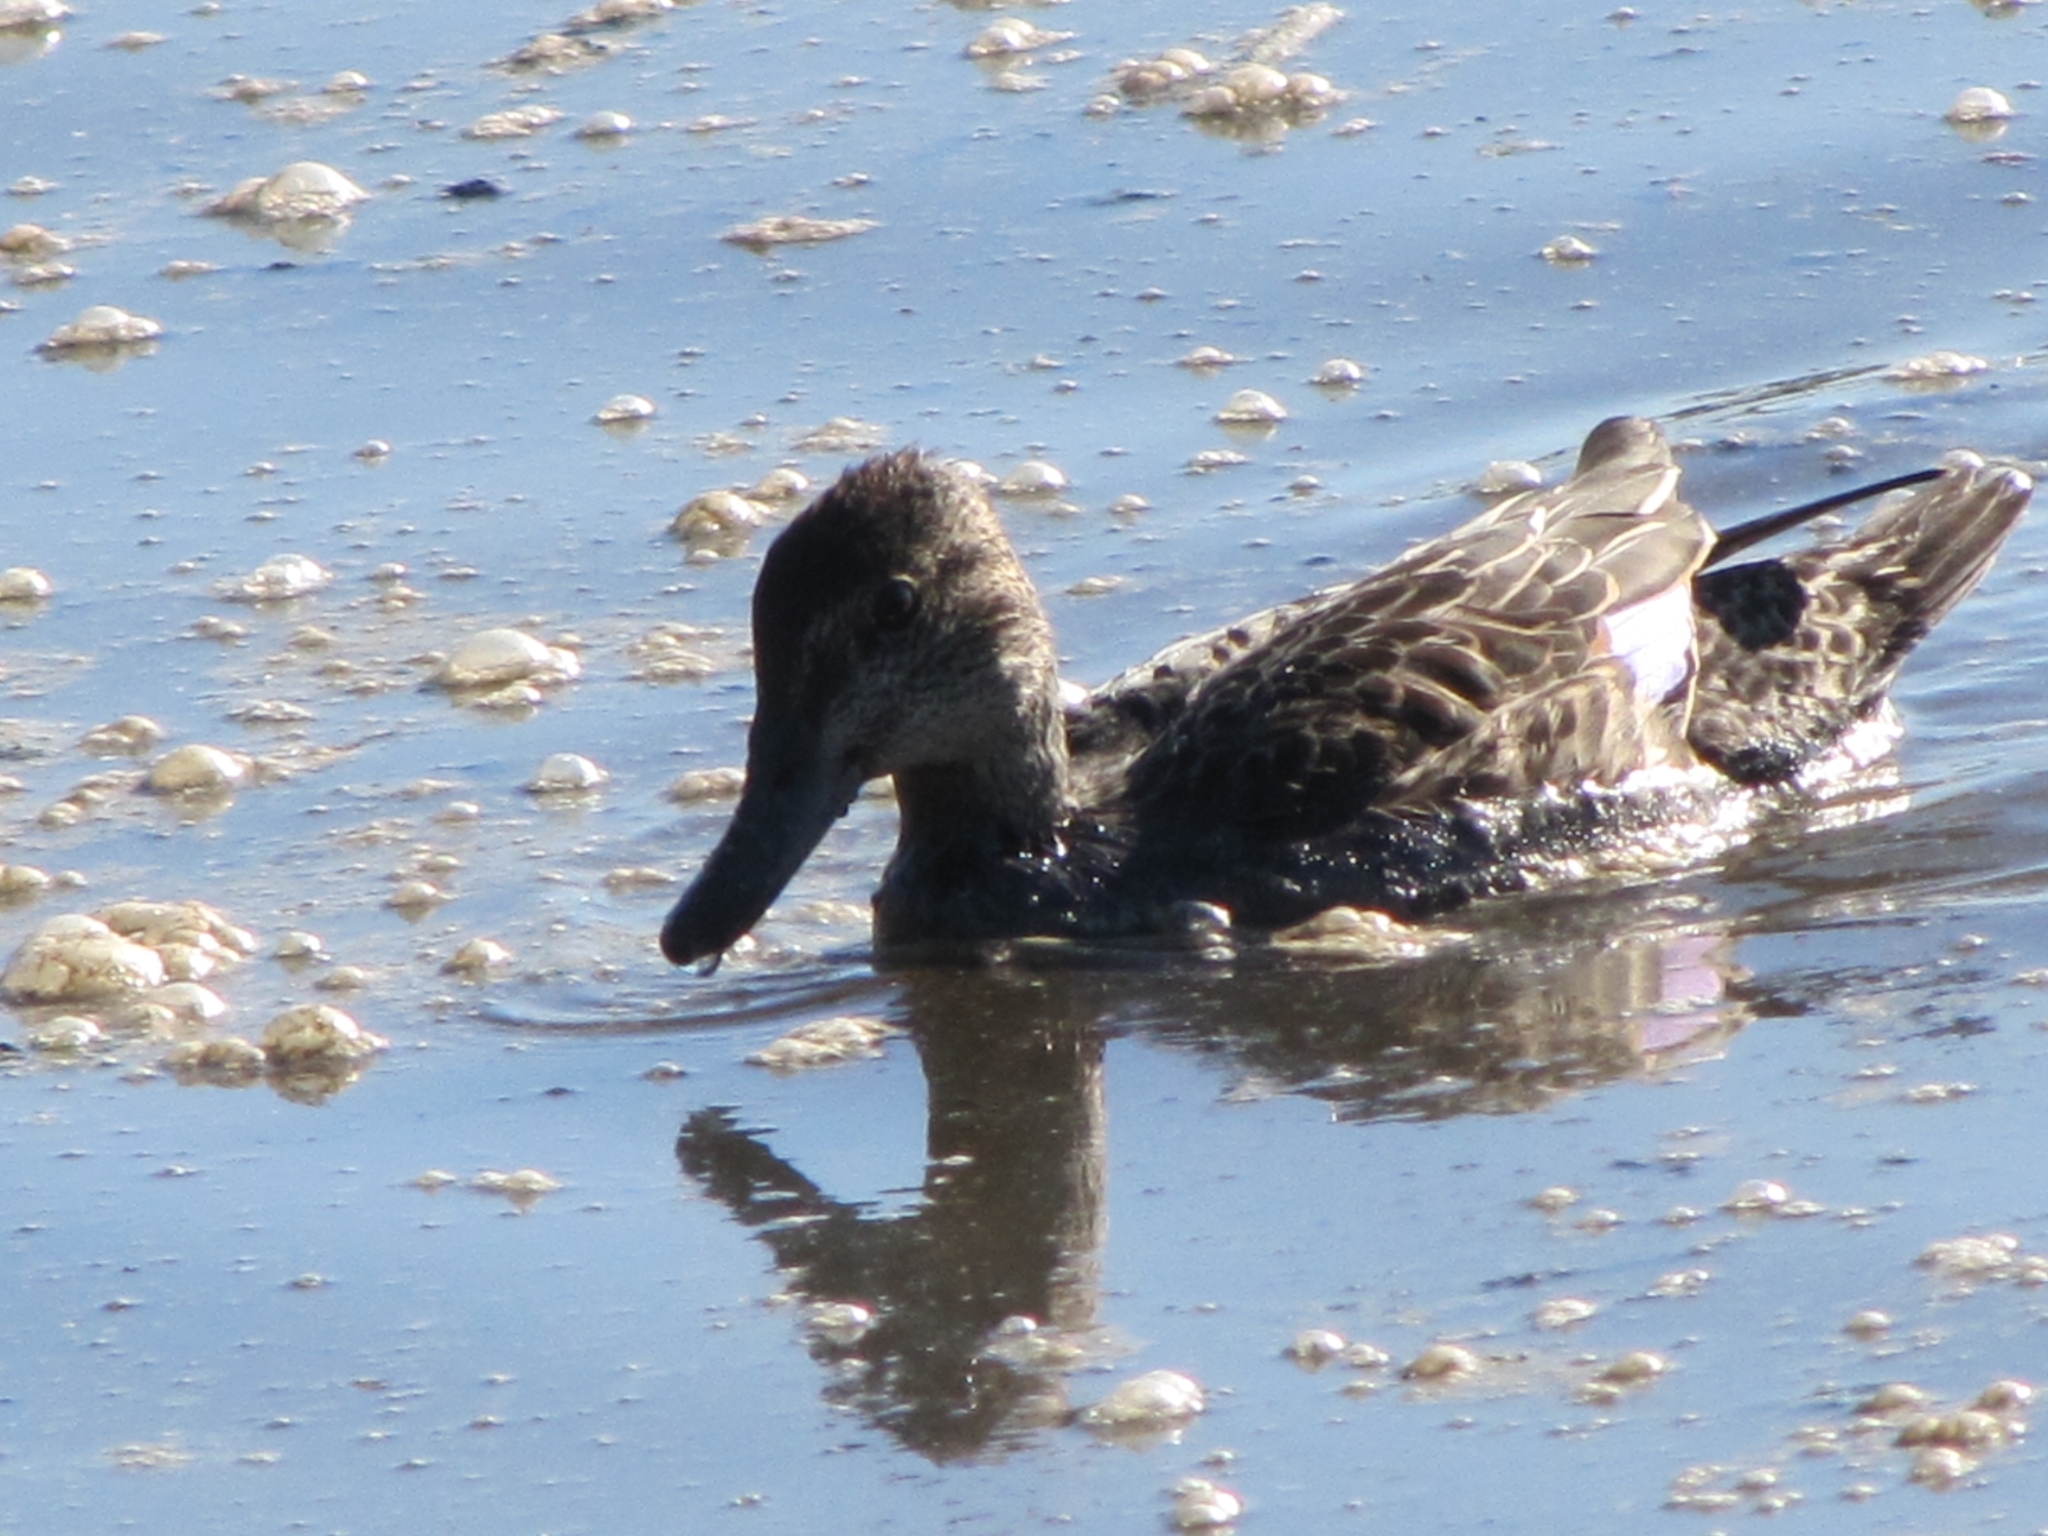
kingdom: Animalia
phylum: Chordata
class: Aves
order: Anseriformes
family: Anatidae
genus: Spatula
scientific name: Spatula discors
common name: Blue-winged teal
